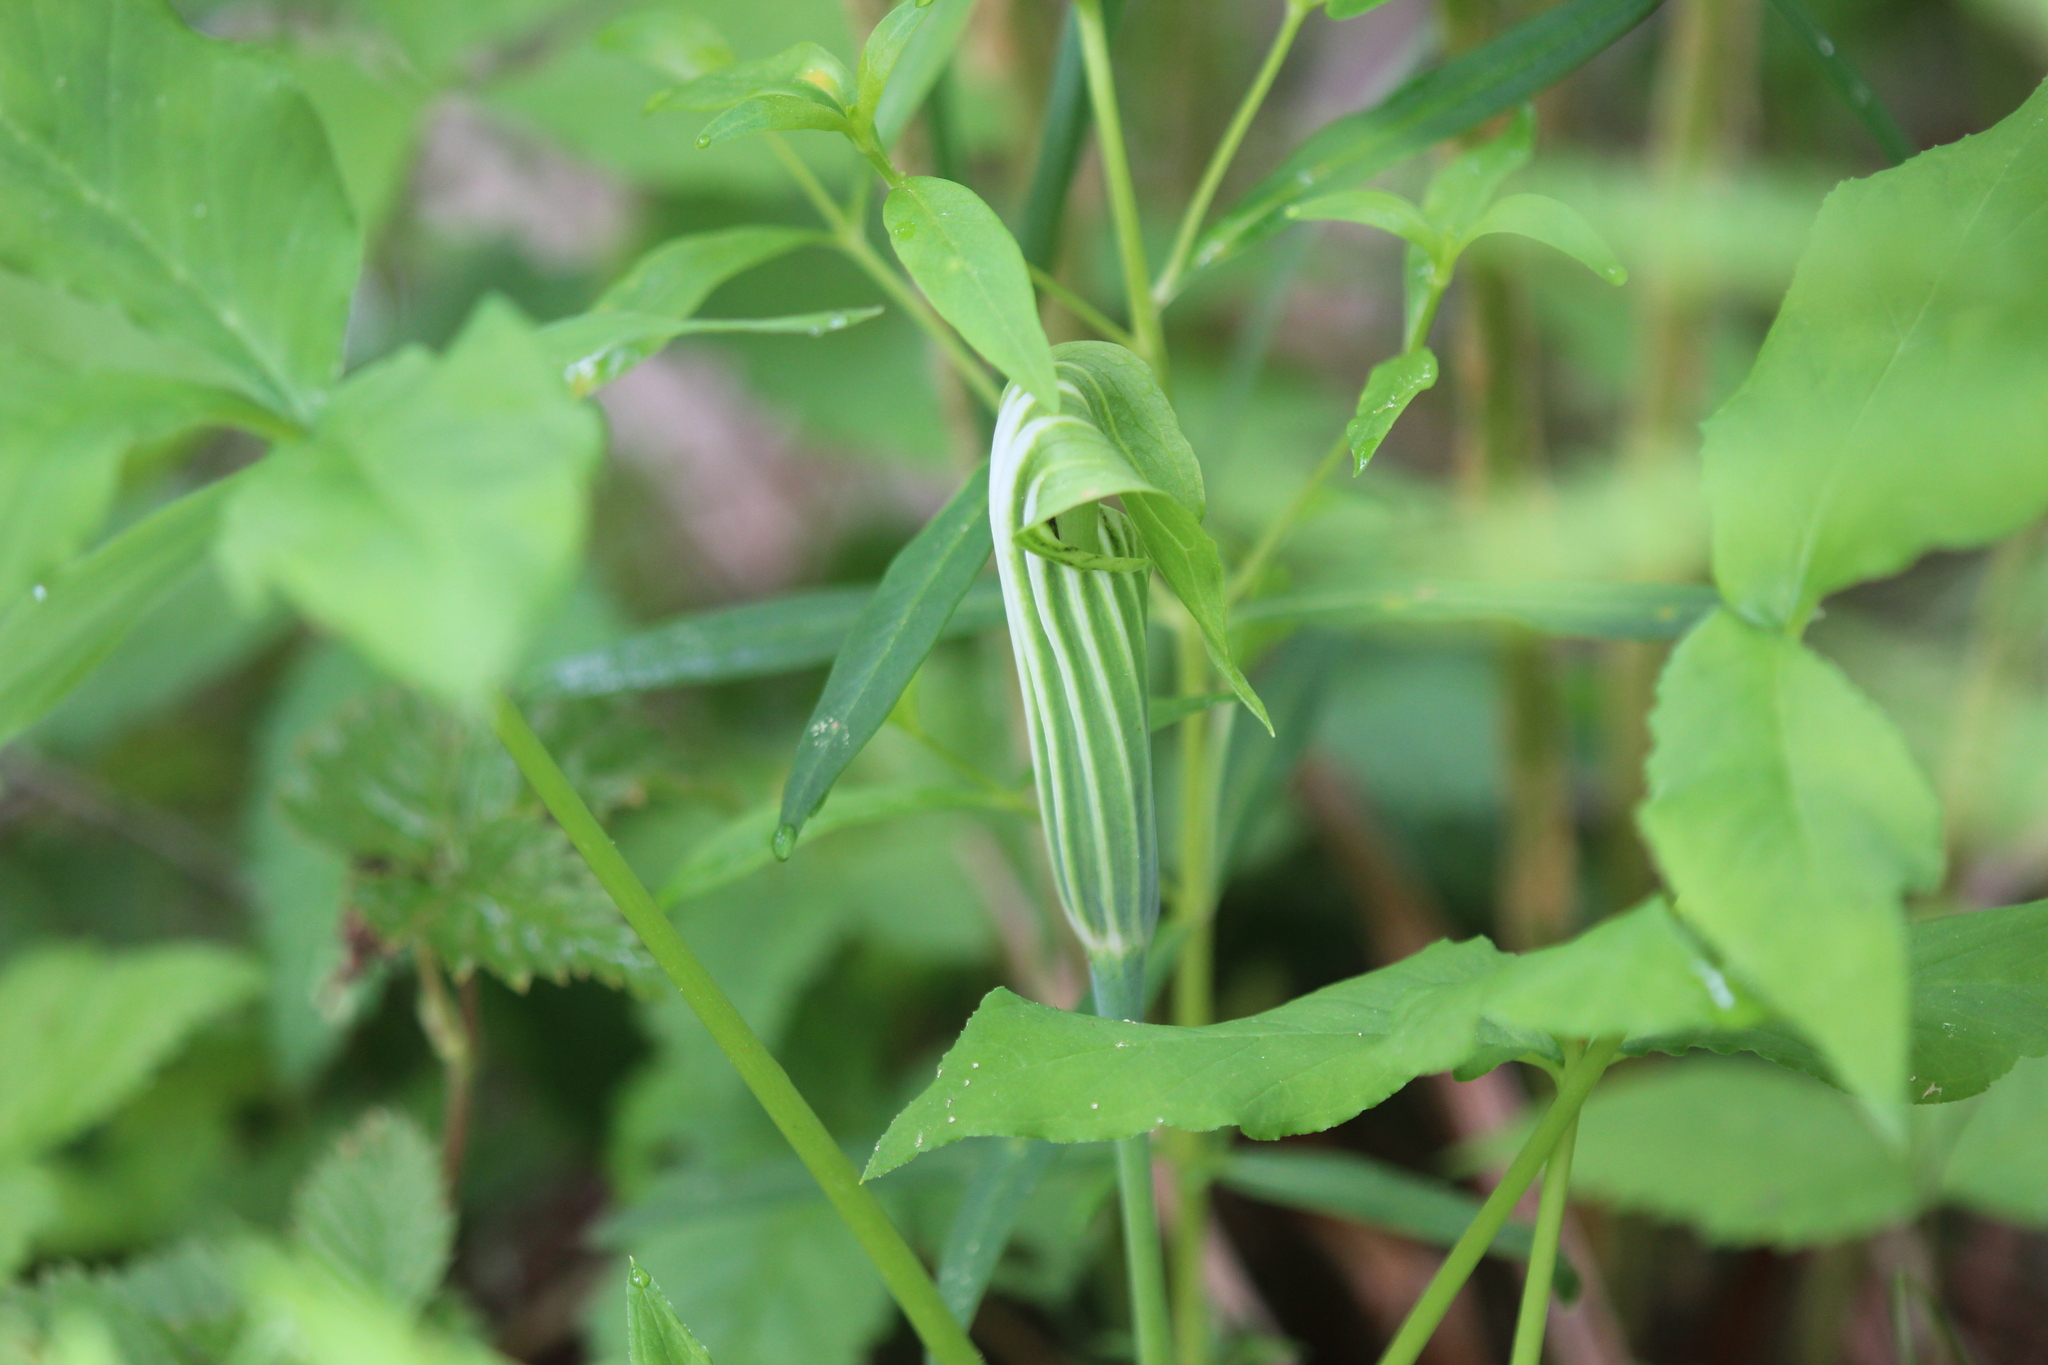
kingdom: Plantae
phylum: Tracheophyta
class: Liliopsida
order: Alismatales
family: Araceae
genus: Arisaema
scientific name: Arisaema stewardsonii
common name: Swamp jack-in-the-pulpit
